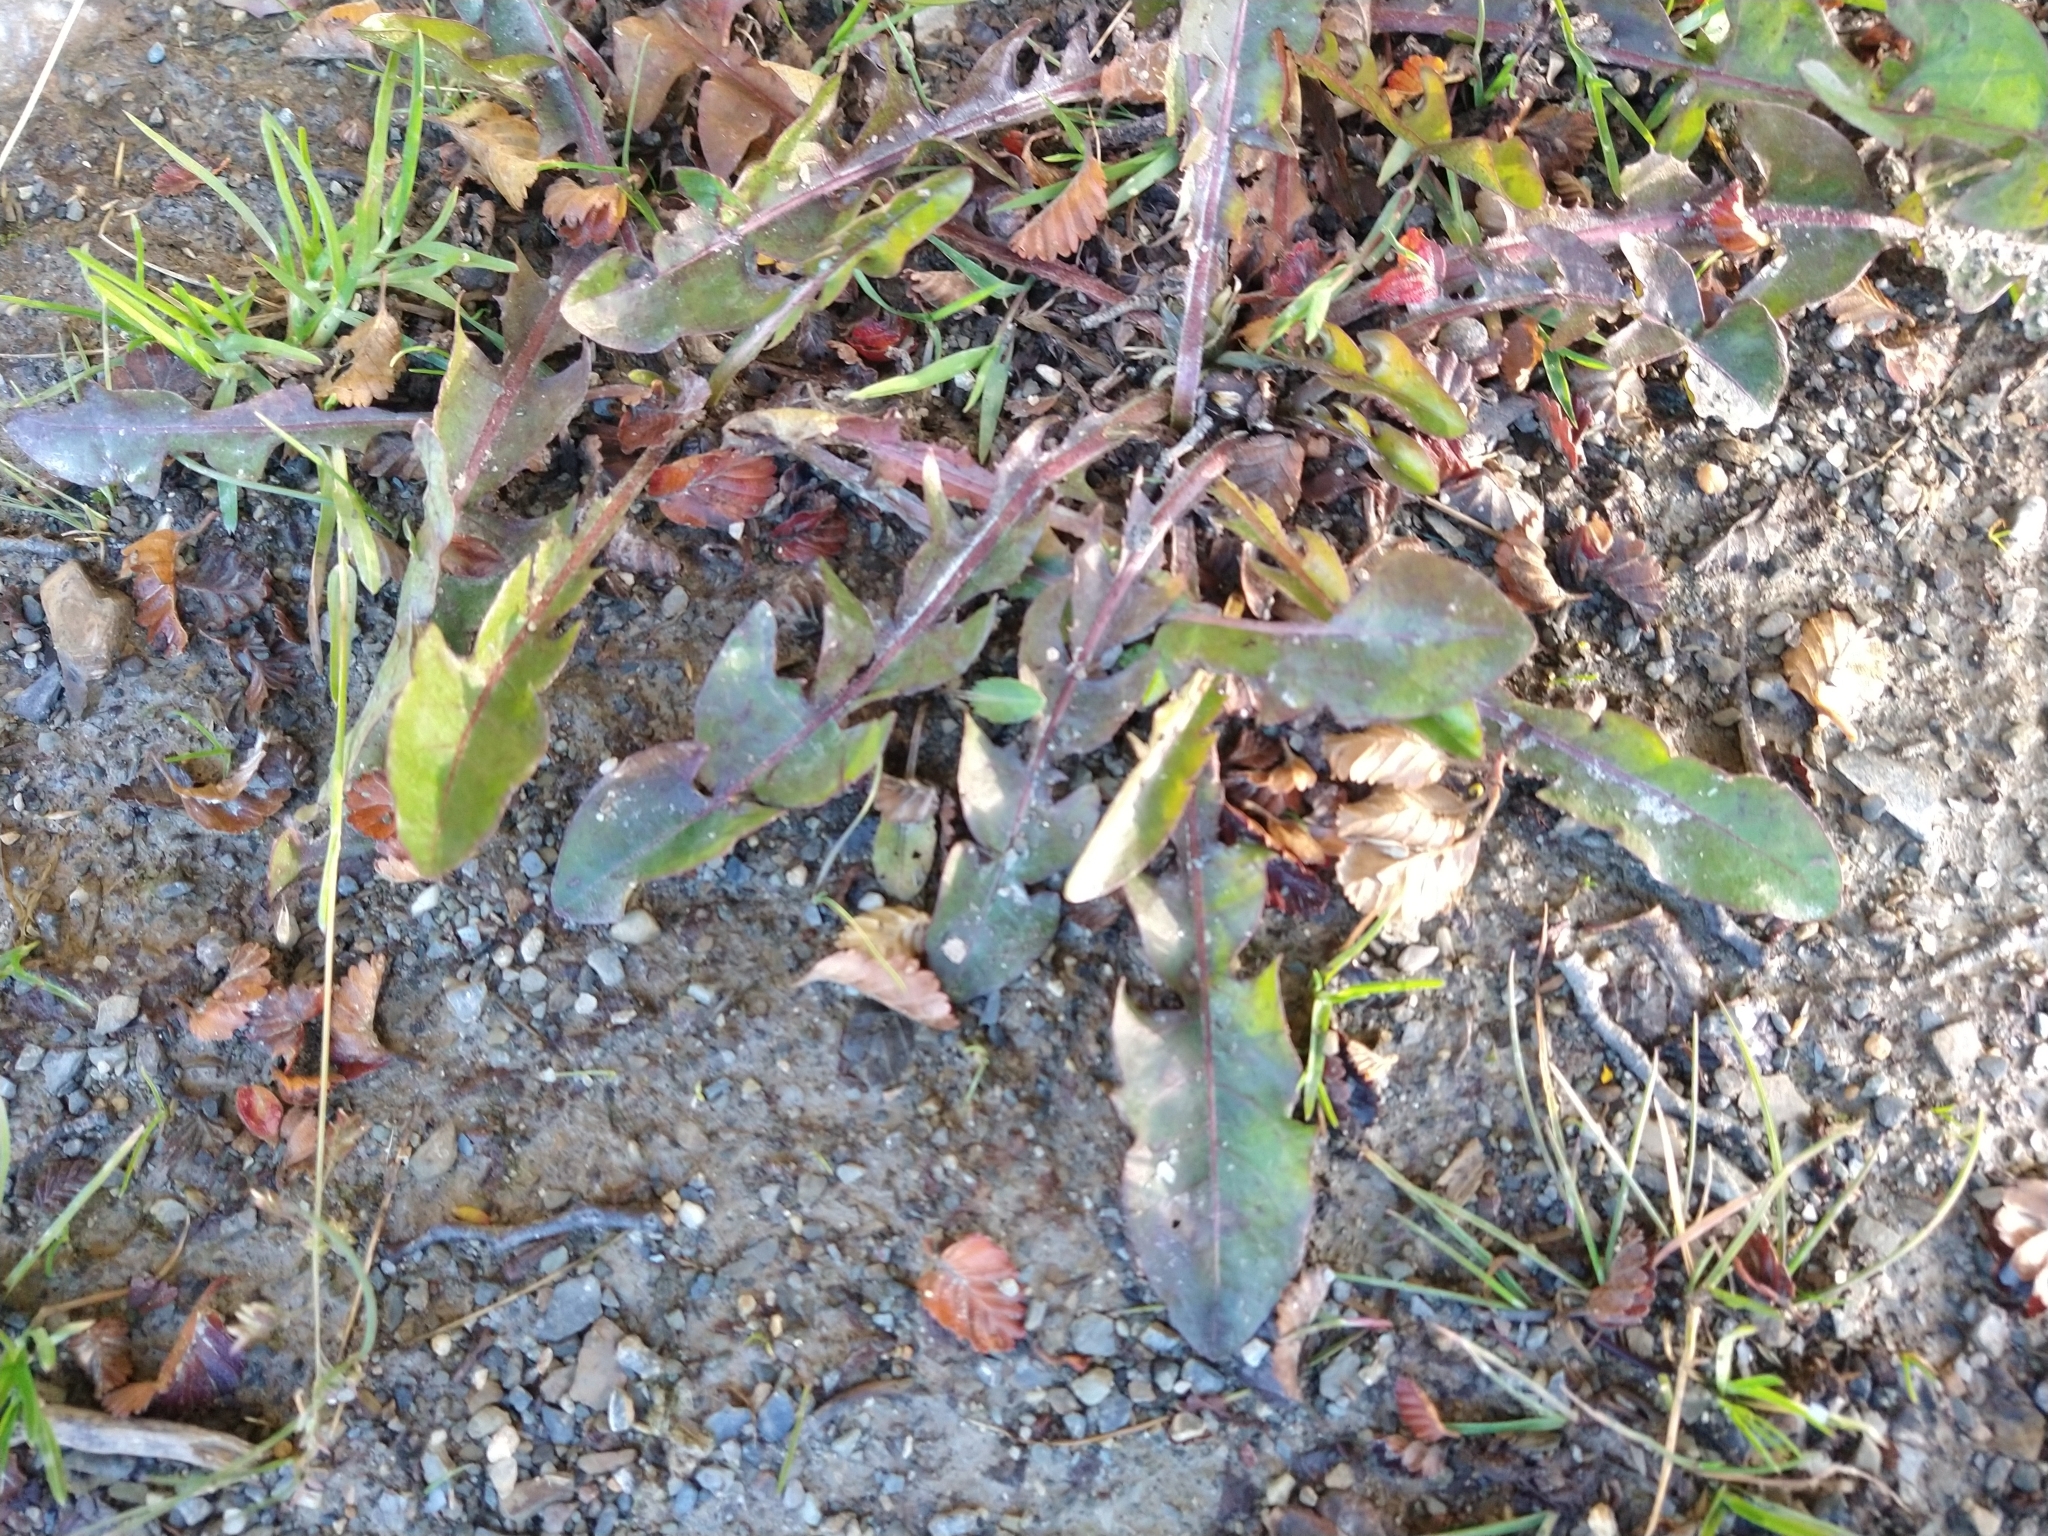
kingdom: Plantae
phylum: Tracheophyta
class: Magnoliopsida
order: Asterales
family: Asteraceae
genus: Taraxacum
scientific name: Taraxacum officinale
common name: Common dandelion
